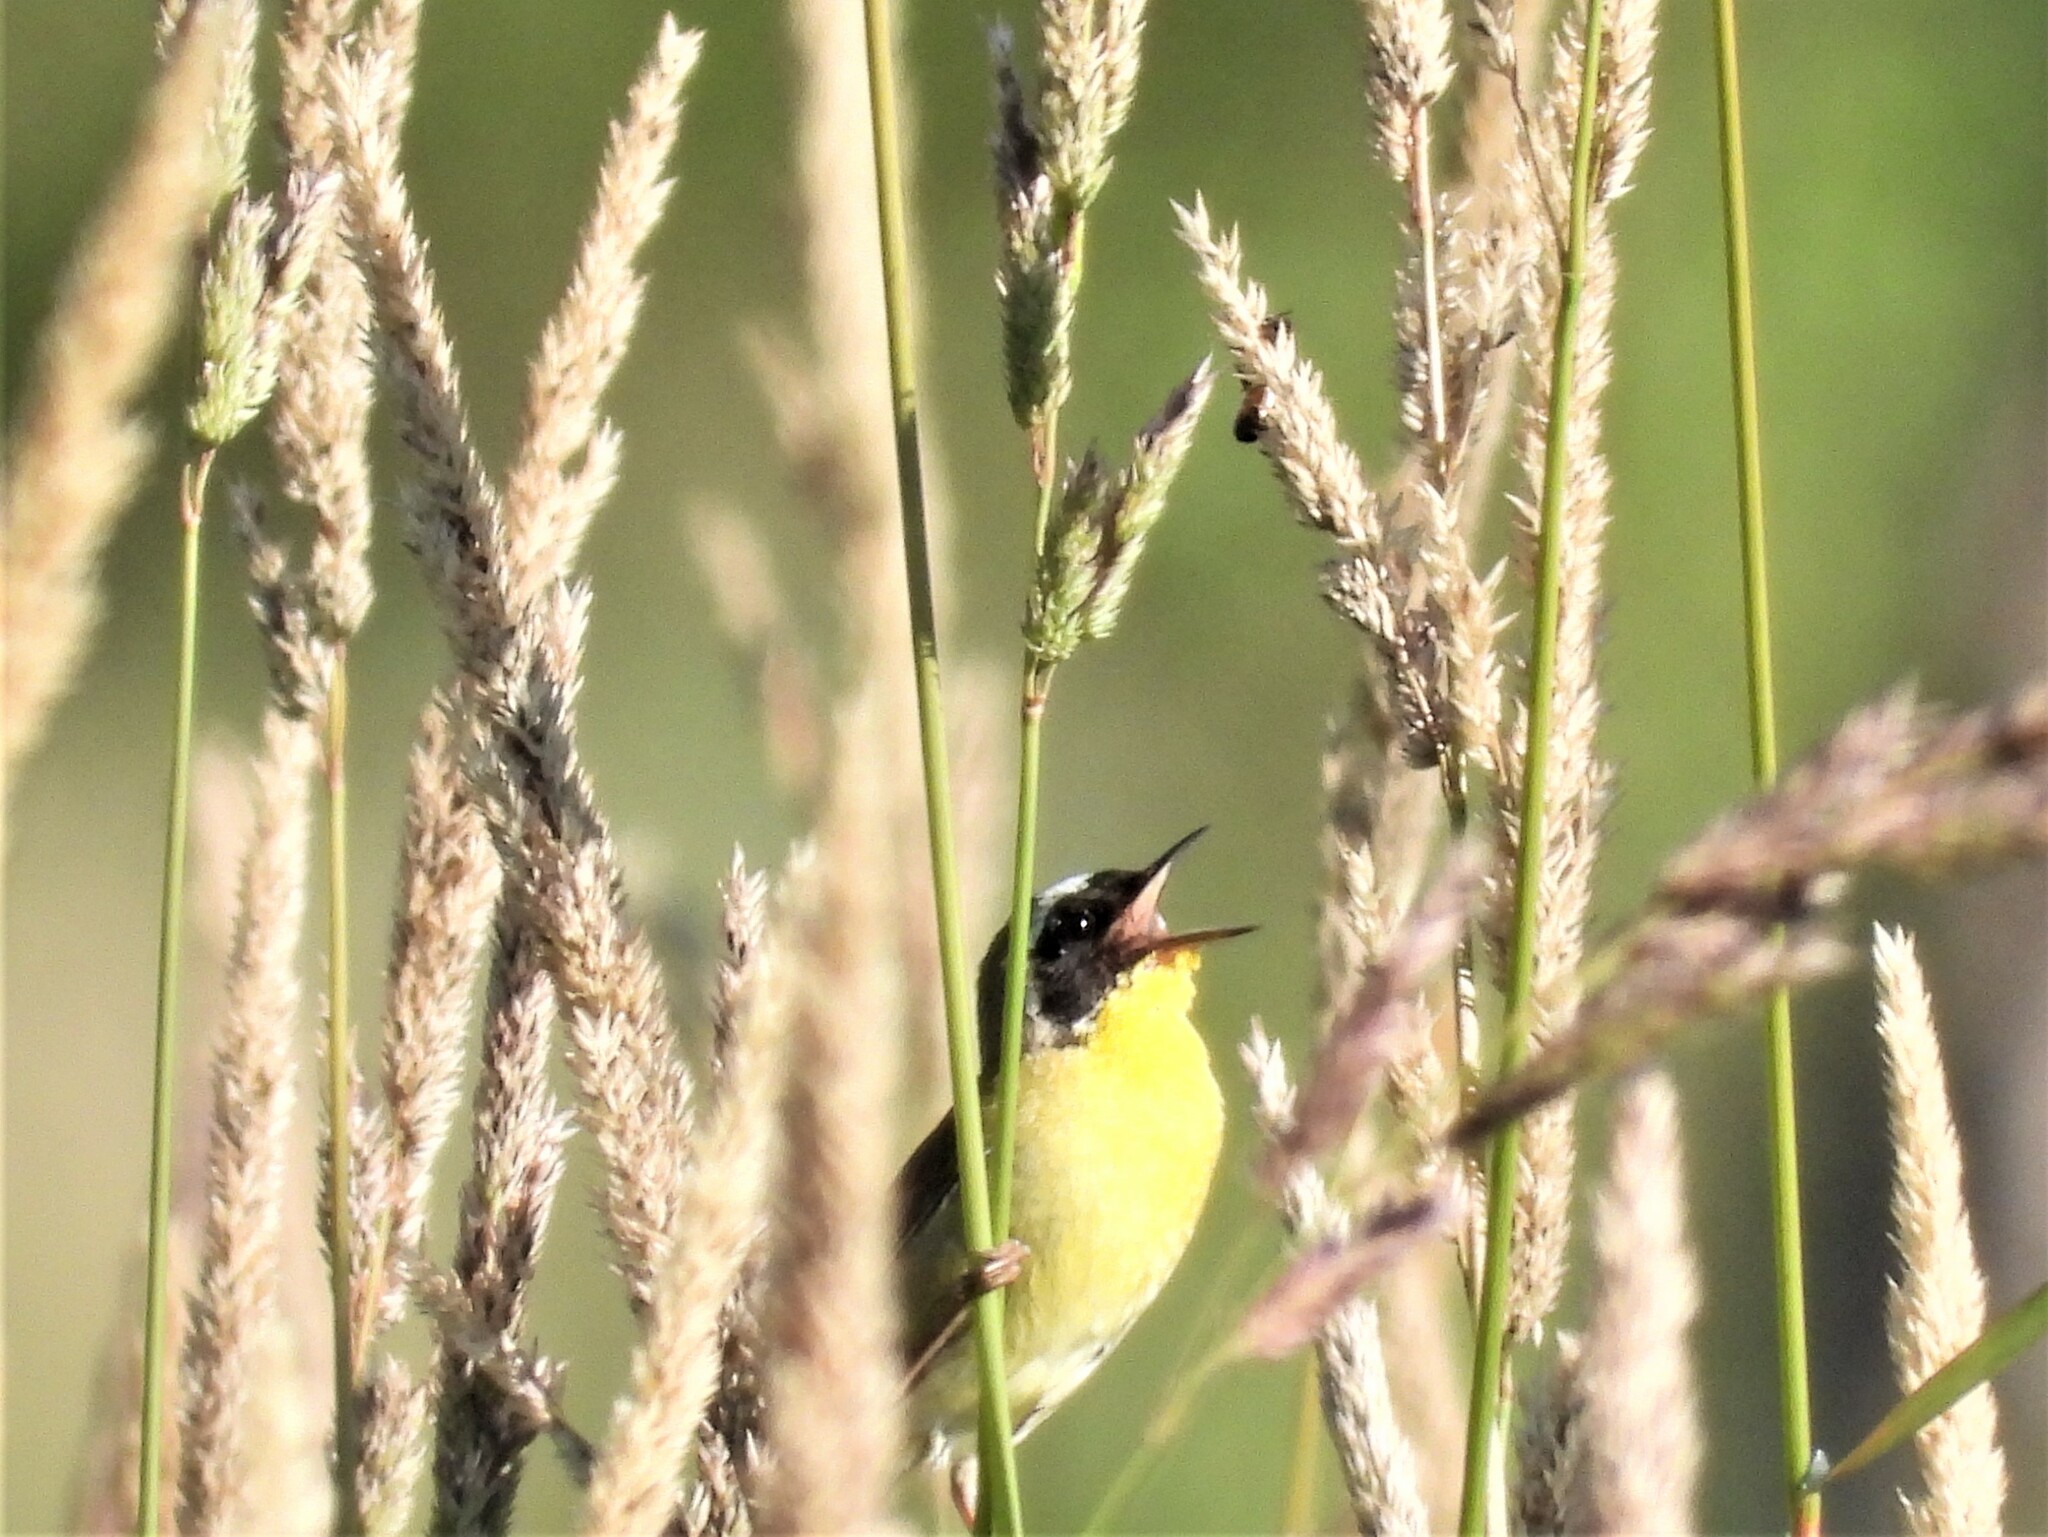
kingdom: Animalia
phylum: Chordata
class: Aves
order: Passeriformes
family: Parulidae
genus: Geothlypis
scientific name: Geothlypis trichas
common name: Common yellowthroat
